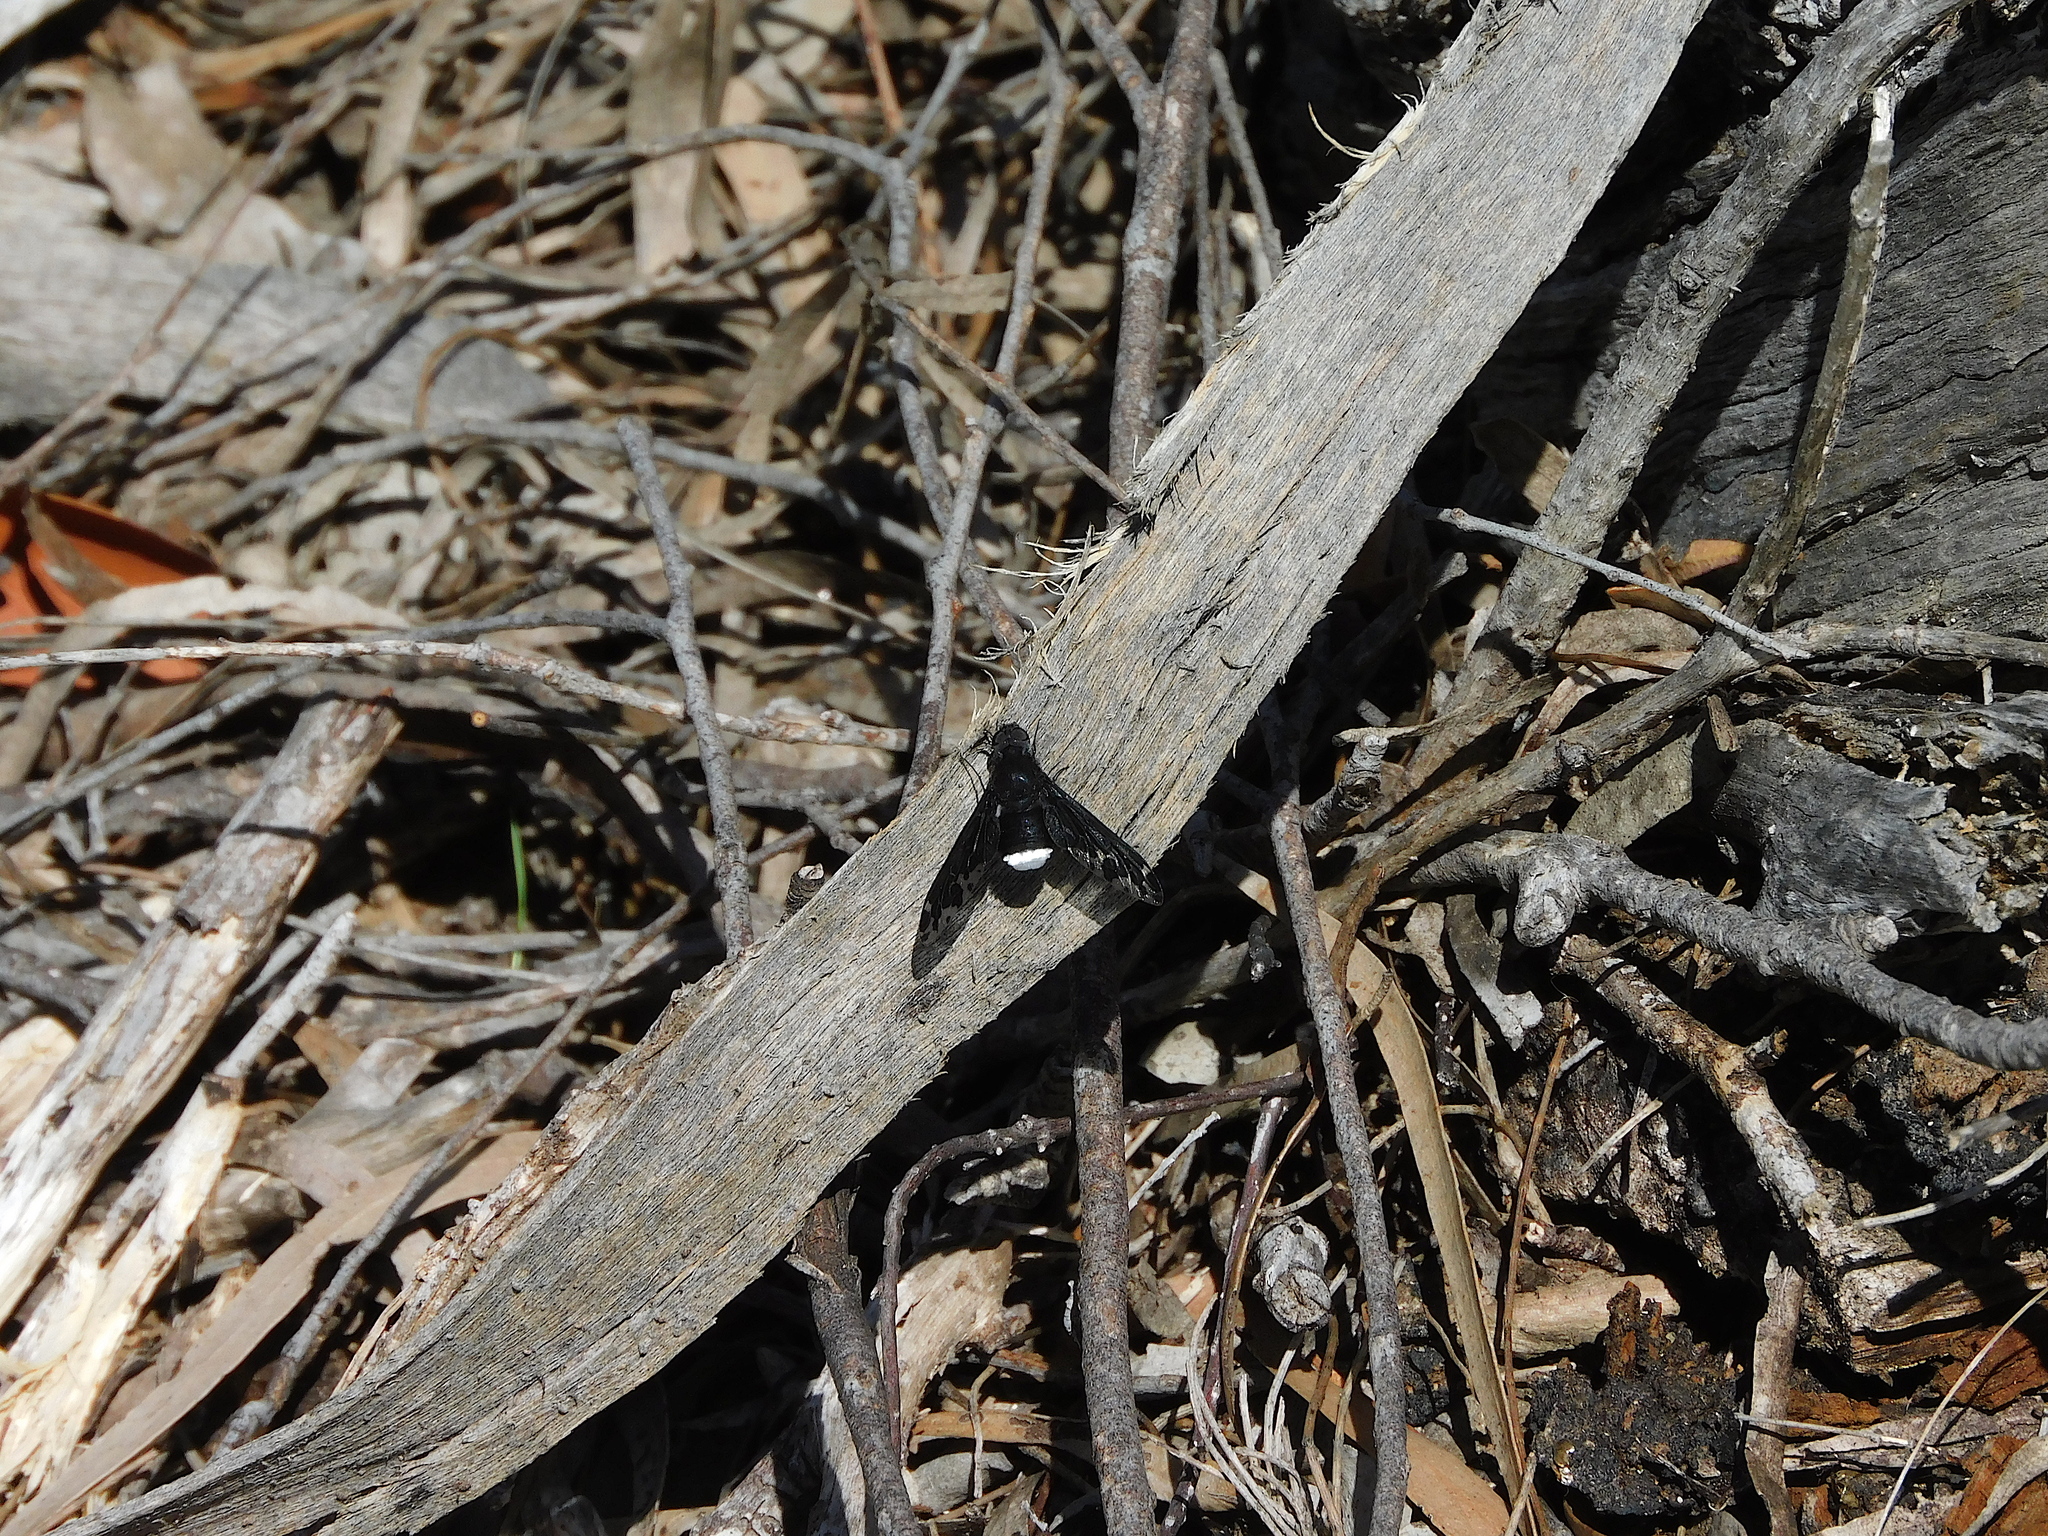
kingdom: Animalia
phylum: Arthropoda
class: Insecta
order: Diptera
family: Bombyliidae
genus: Anthrax
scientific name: Anthrax maculata
